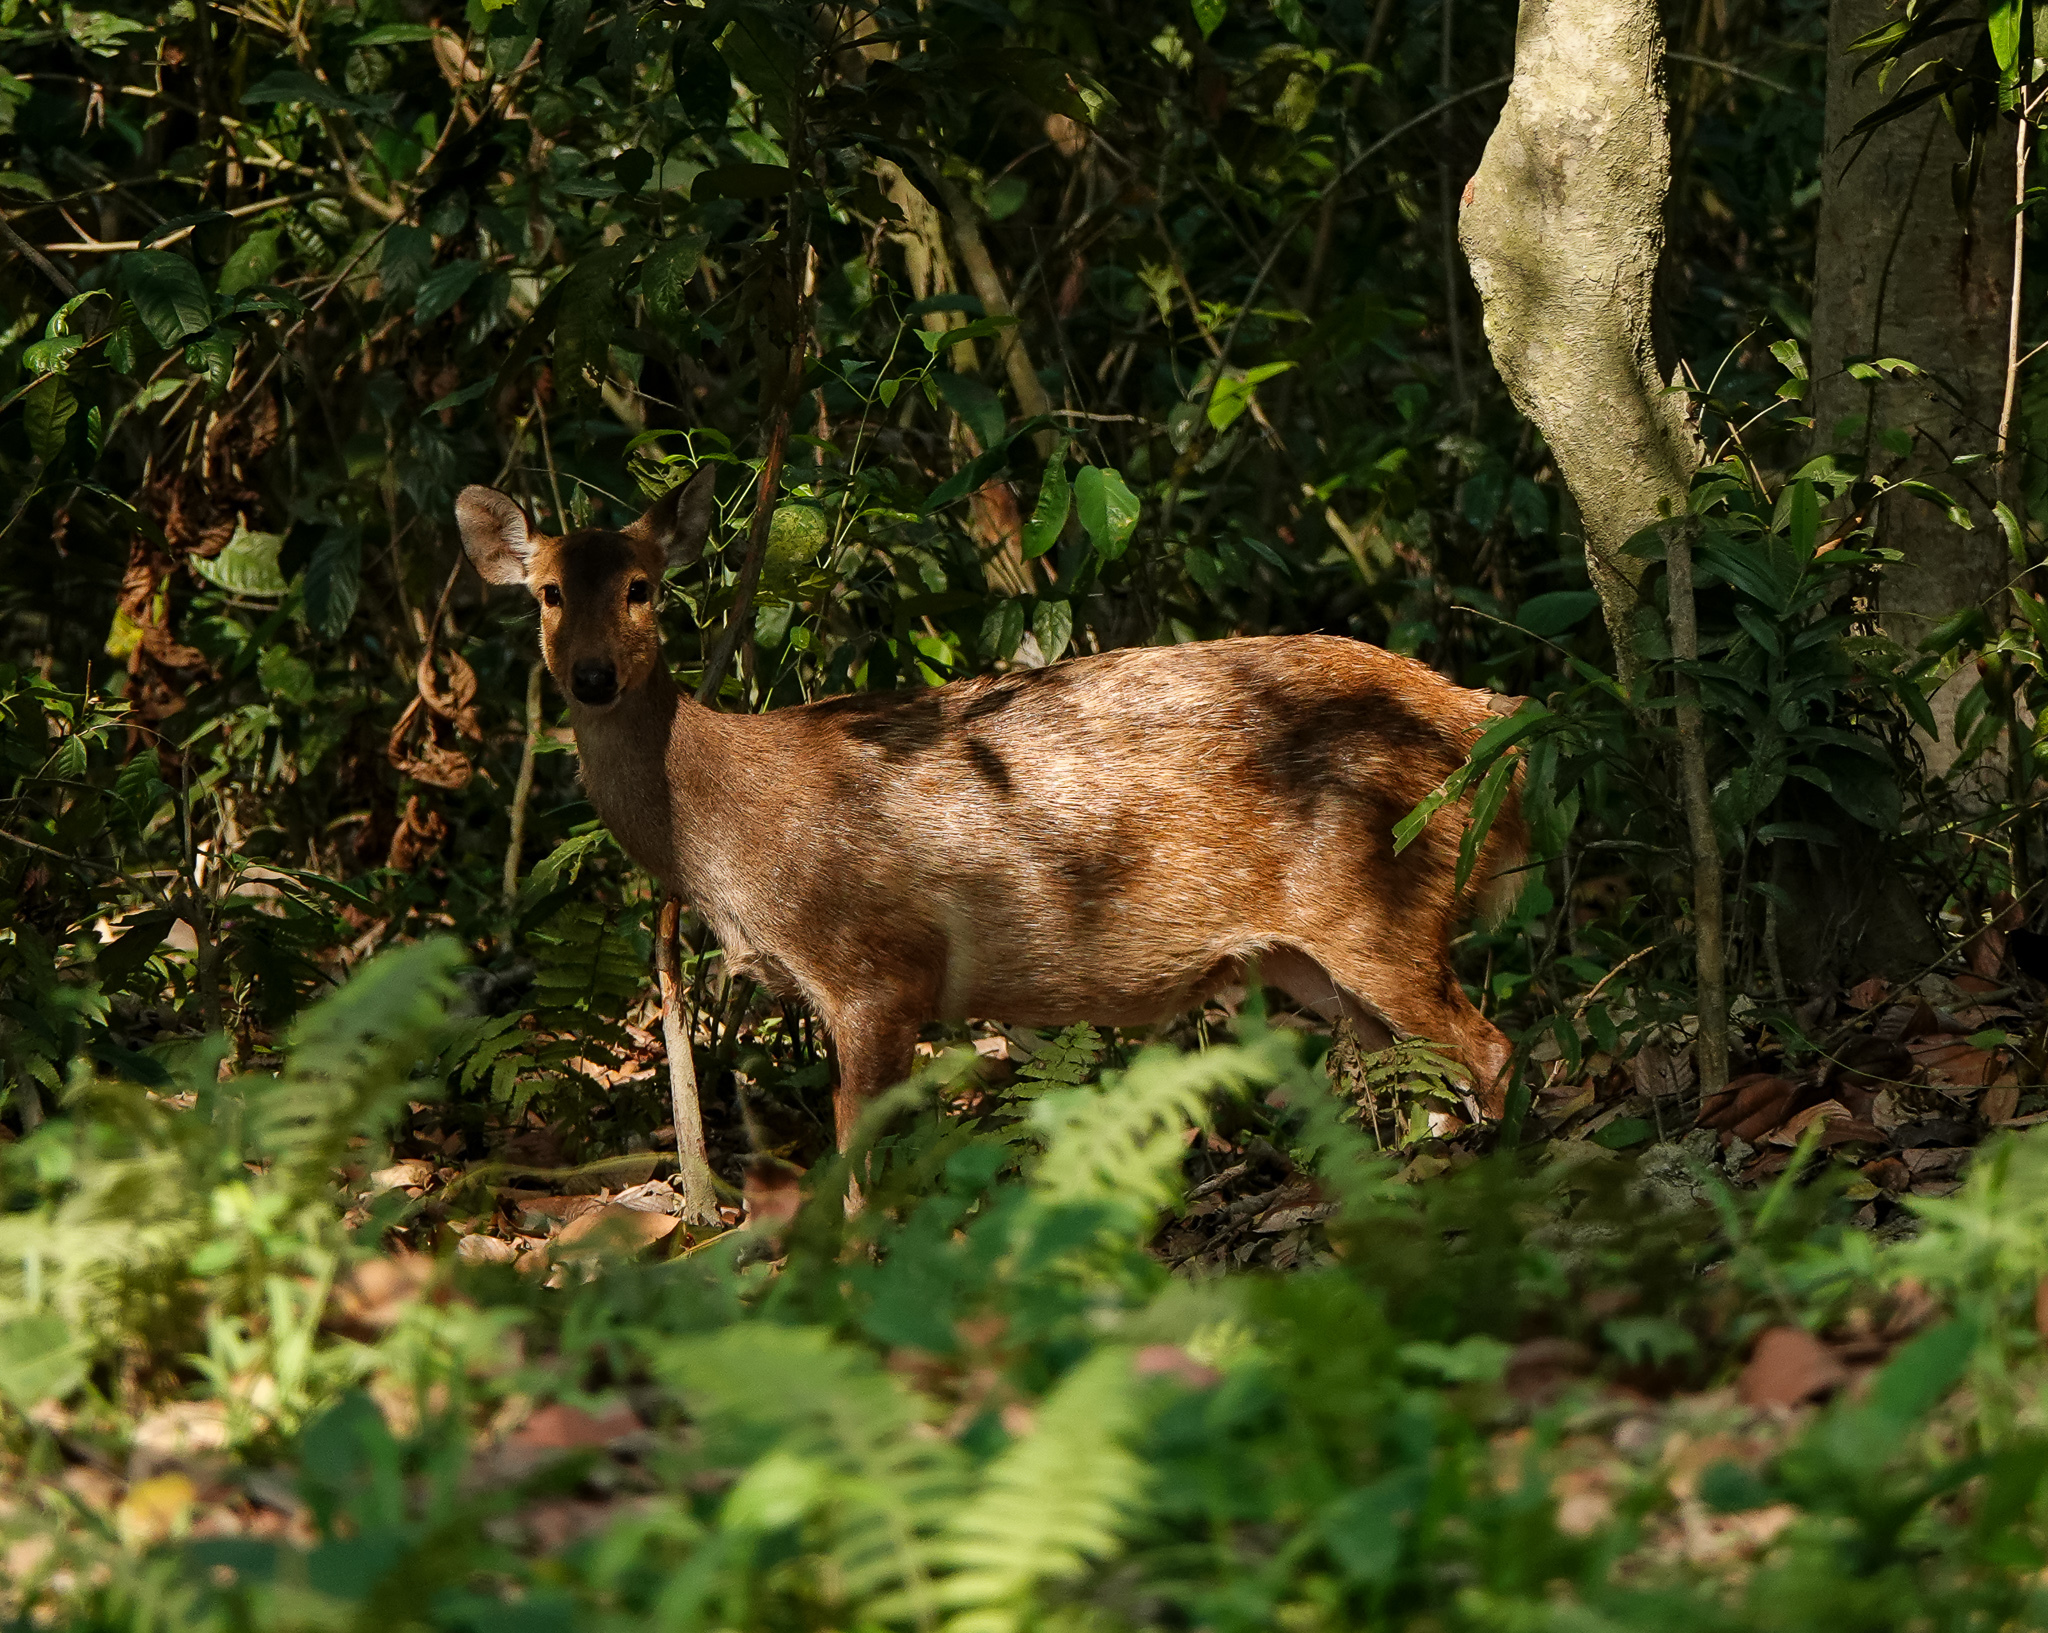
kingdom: Animalia
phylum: Chordata
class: Mammalia
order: Artiodactyla
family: Cervidae
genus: Axis
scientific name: Axis porcinus
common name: Hog deer
